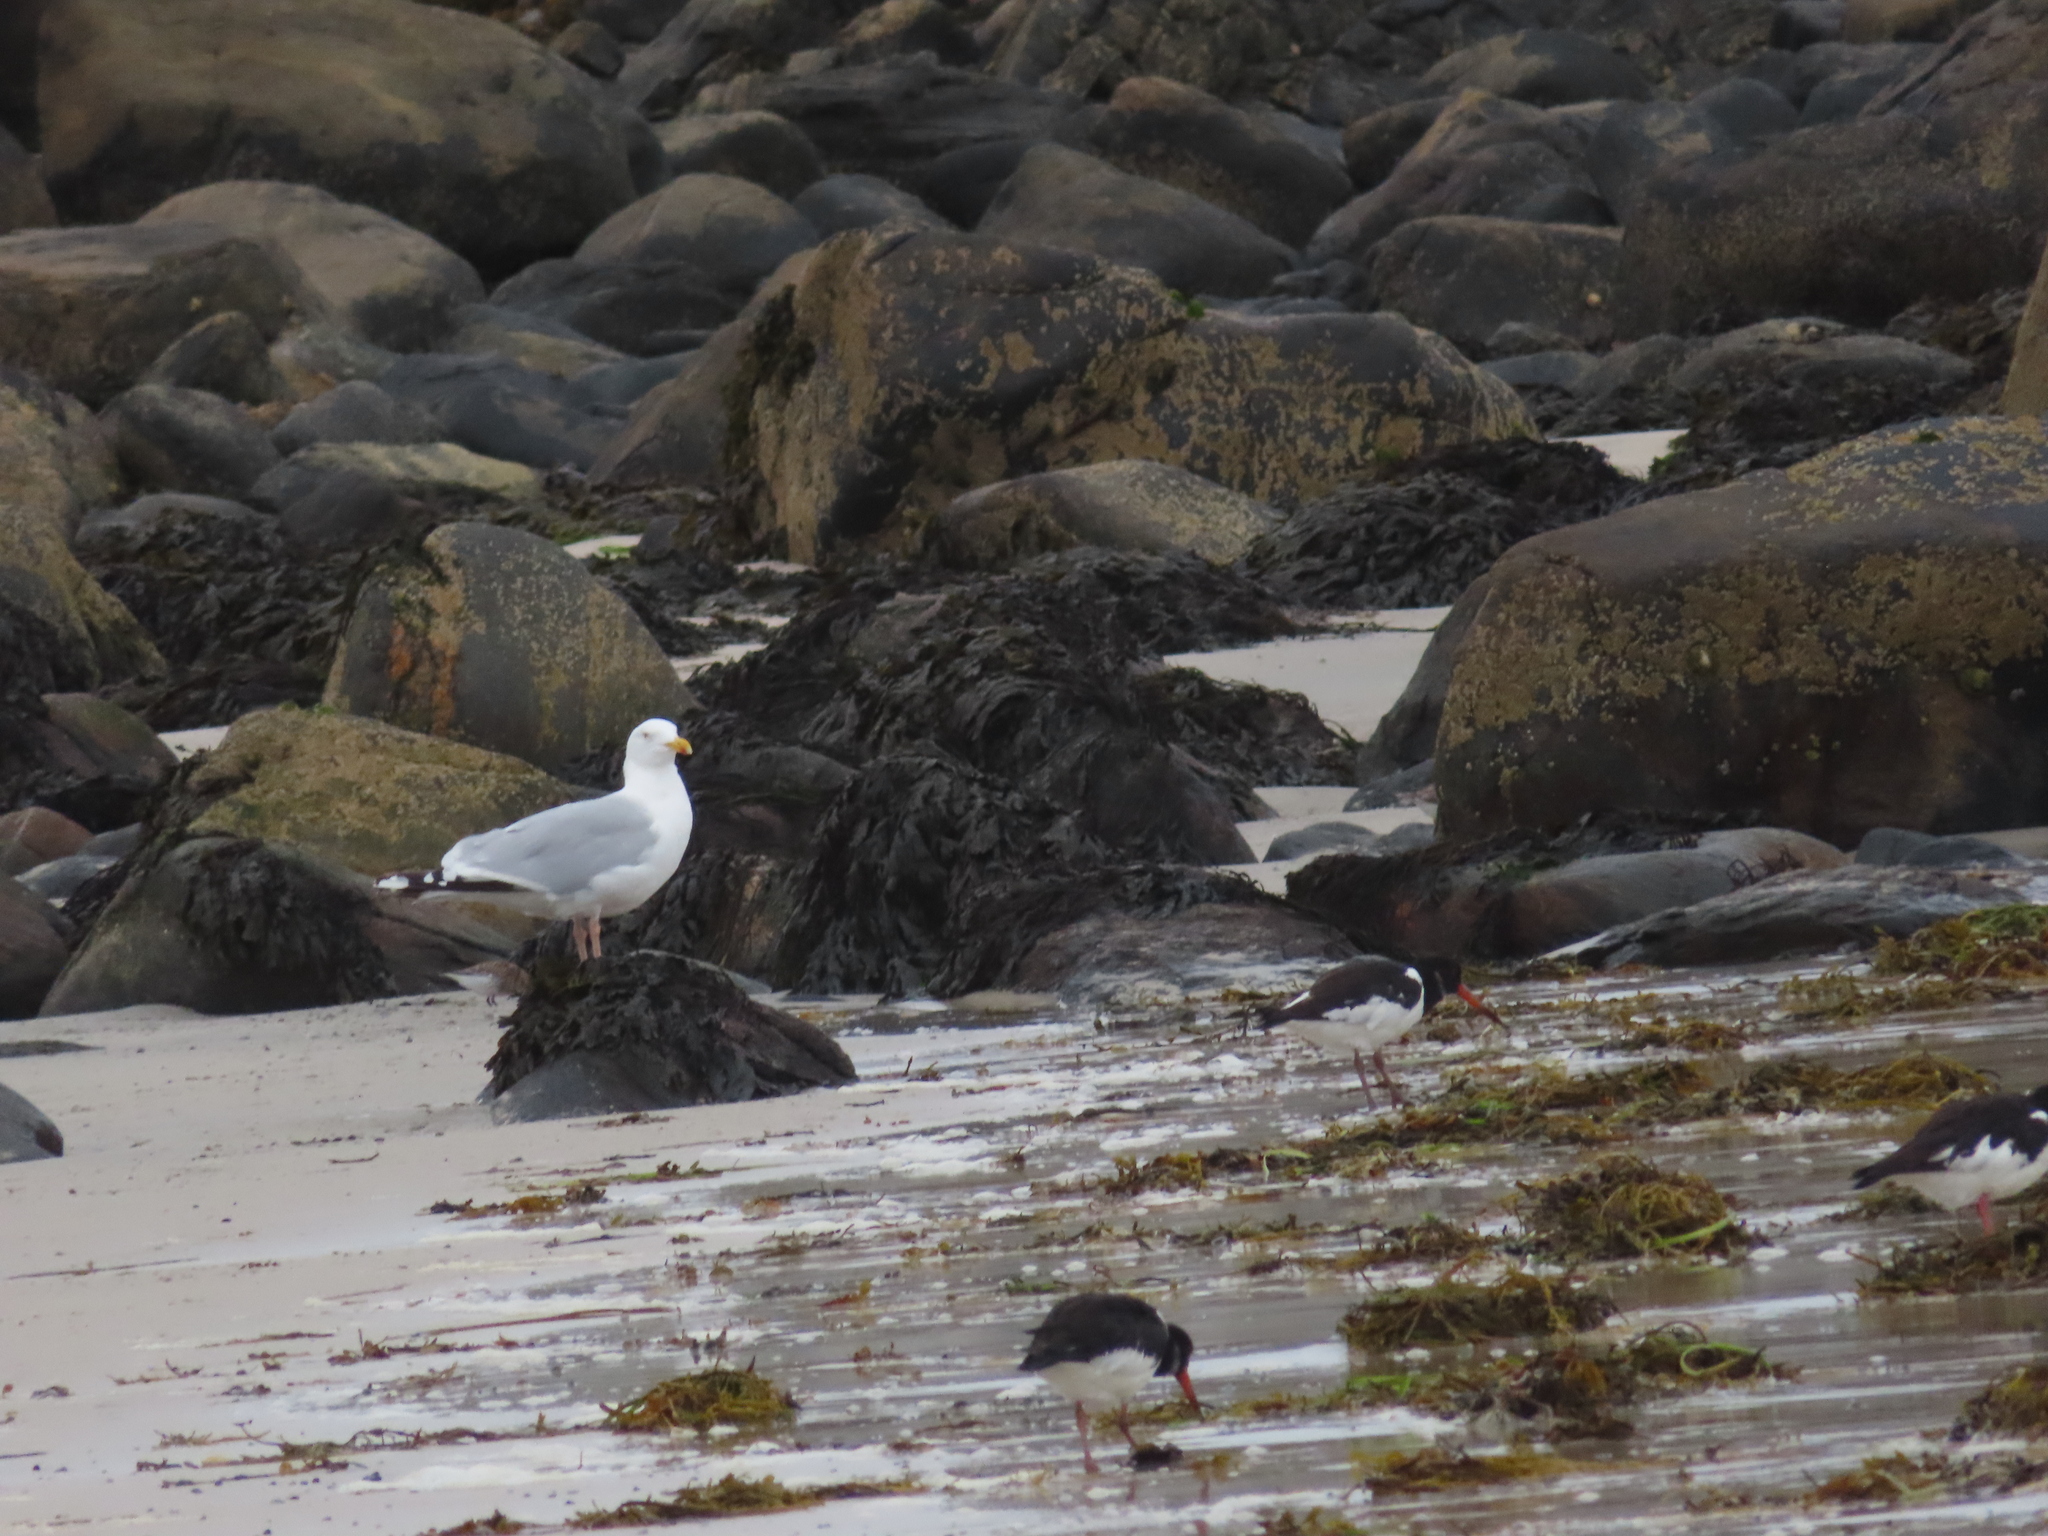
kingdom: Animalia
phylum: Chordata
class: Aves
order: Charadriiformes
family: Laridae
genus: Larus
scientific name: Larus argentatus
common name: Herring gull
